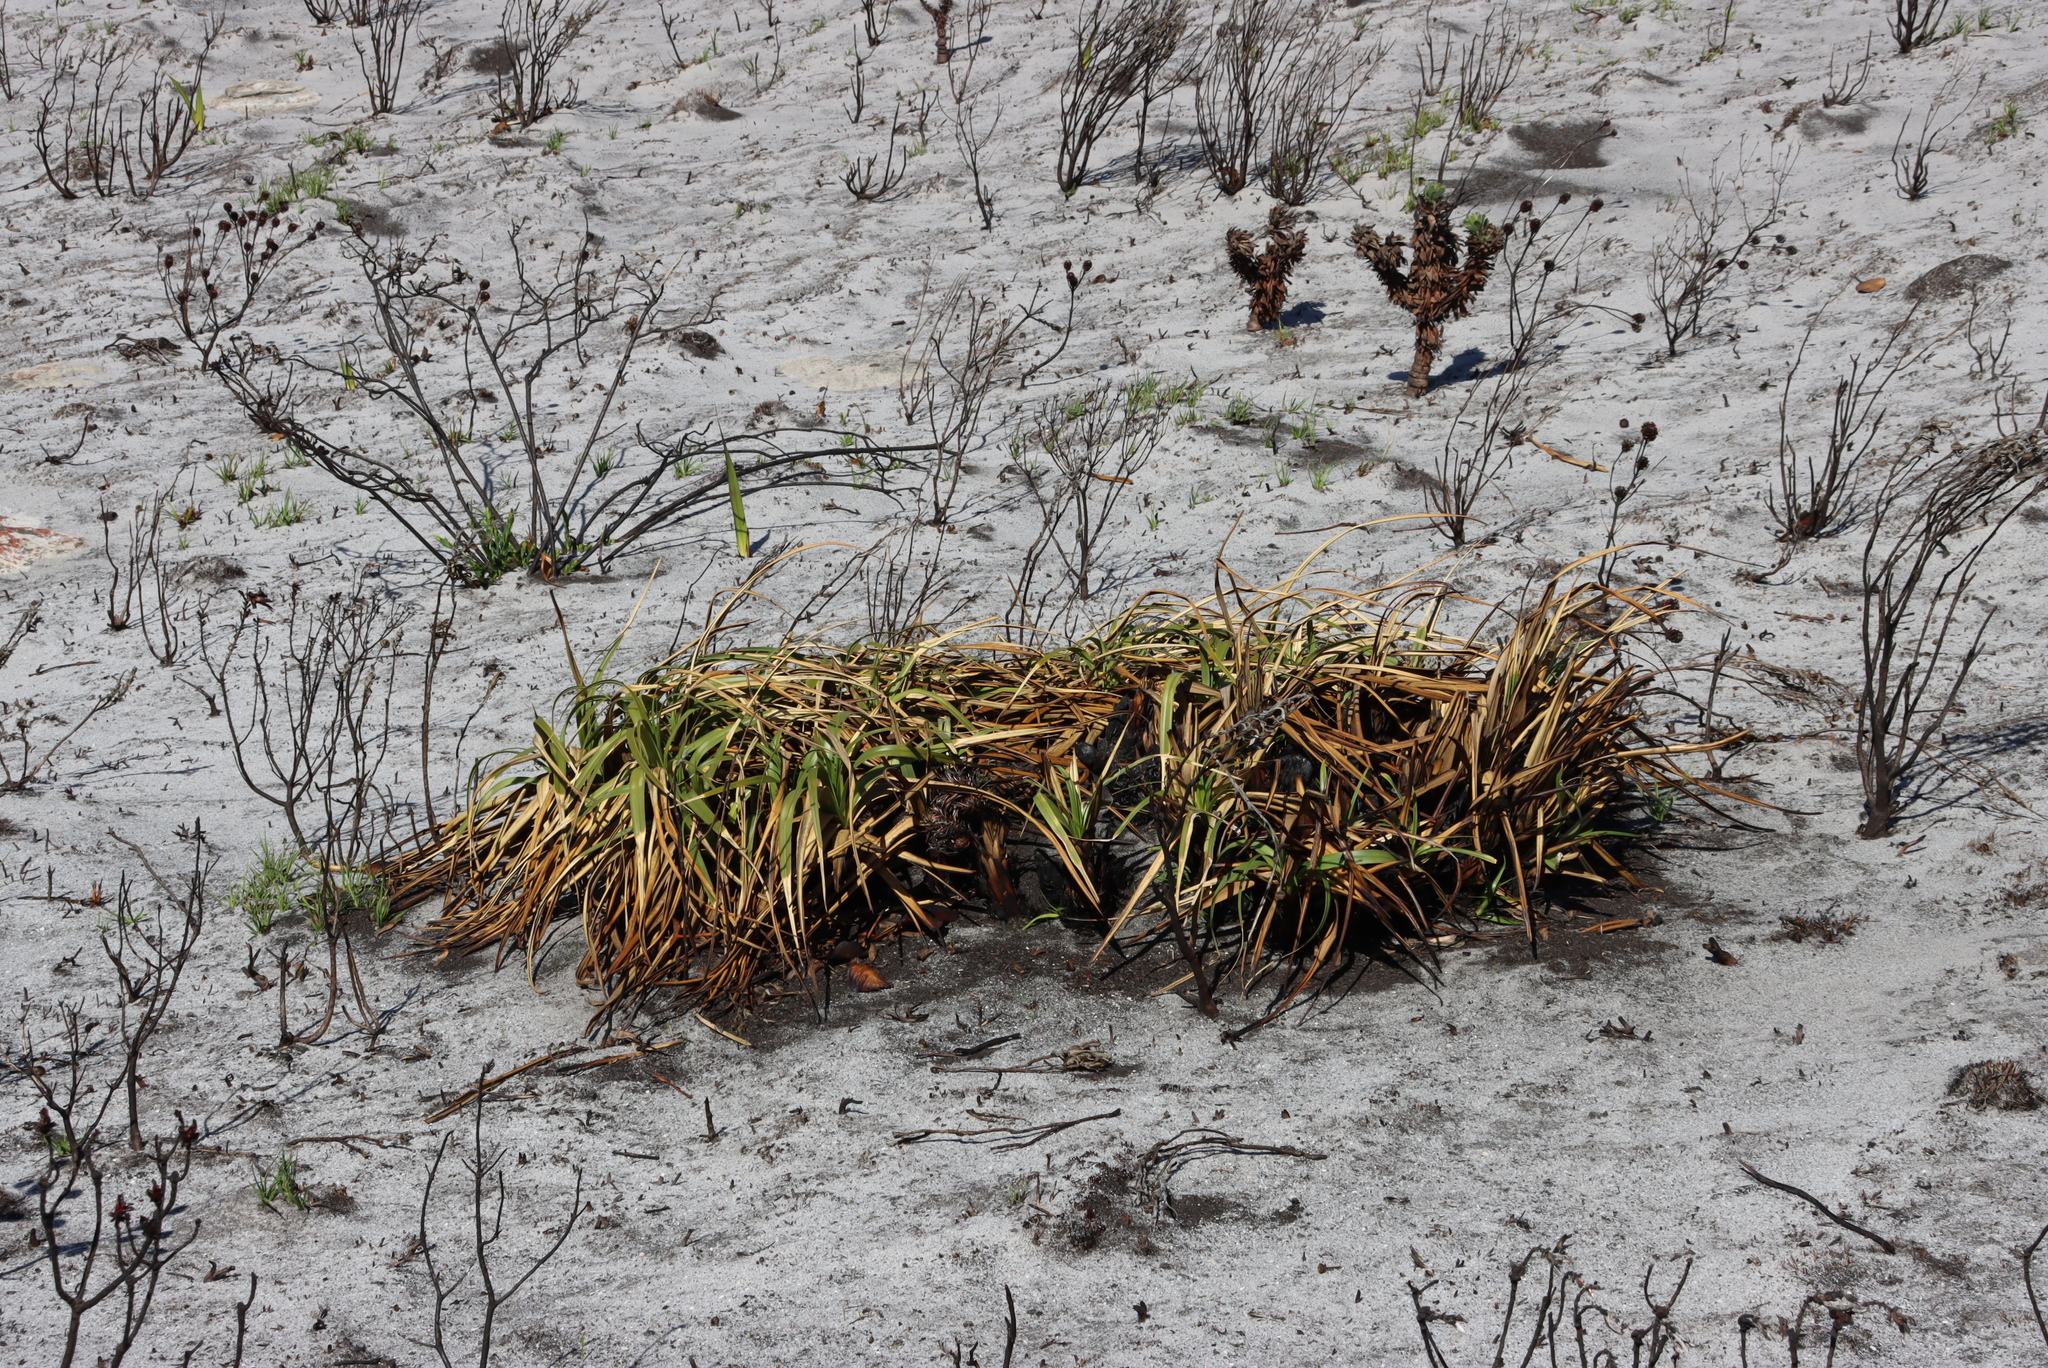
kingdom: Plantae
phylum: Tracheophyta
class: Liliopsida
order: Poales
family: Cyperaceae
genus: Tetraria
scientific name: Tetraria thermalis
